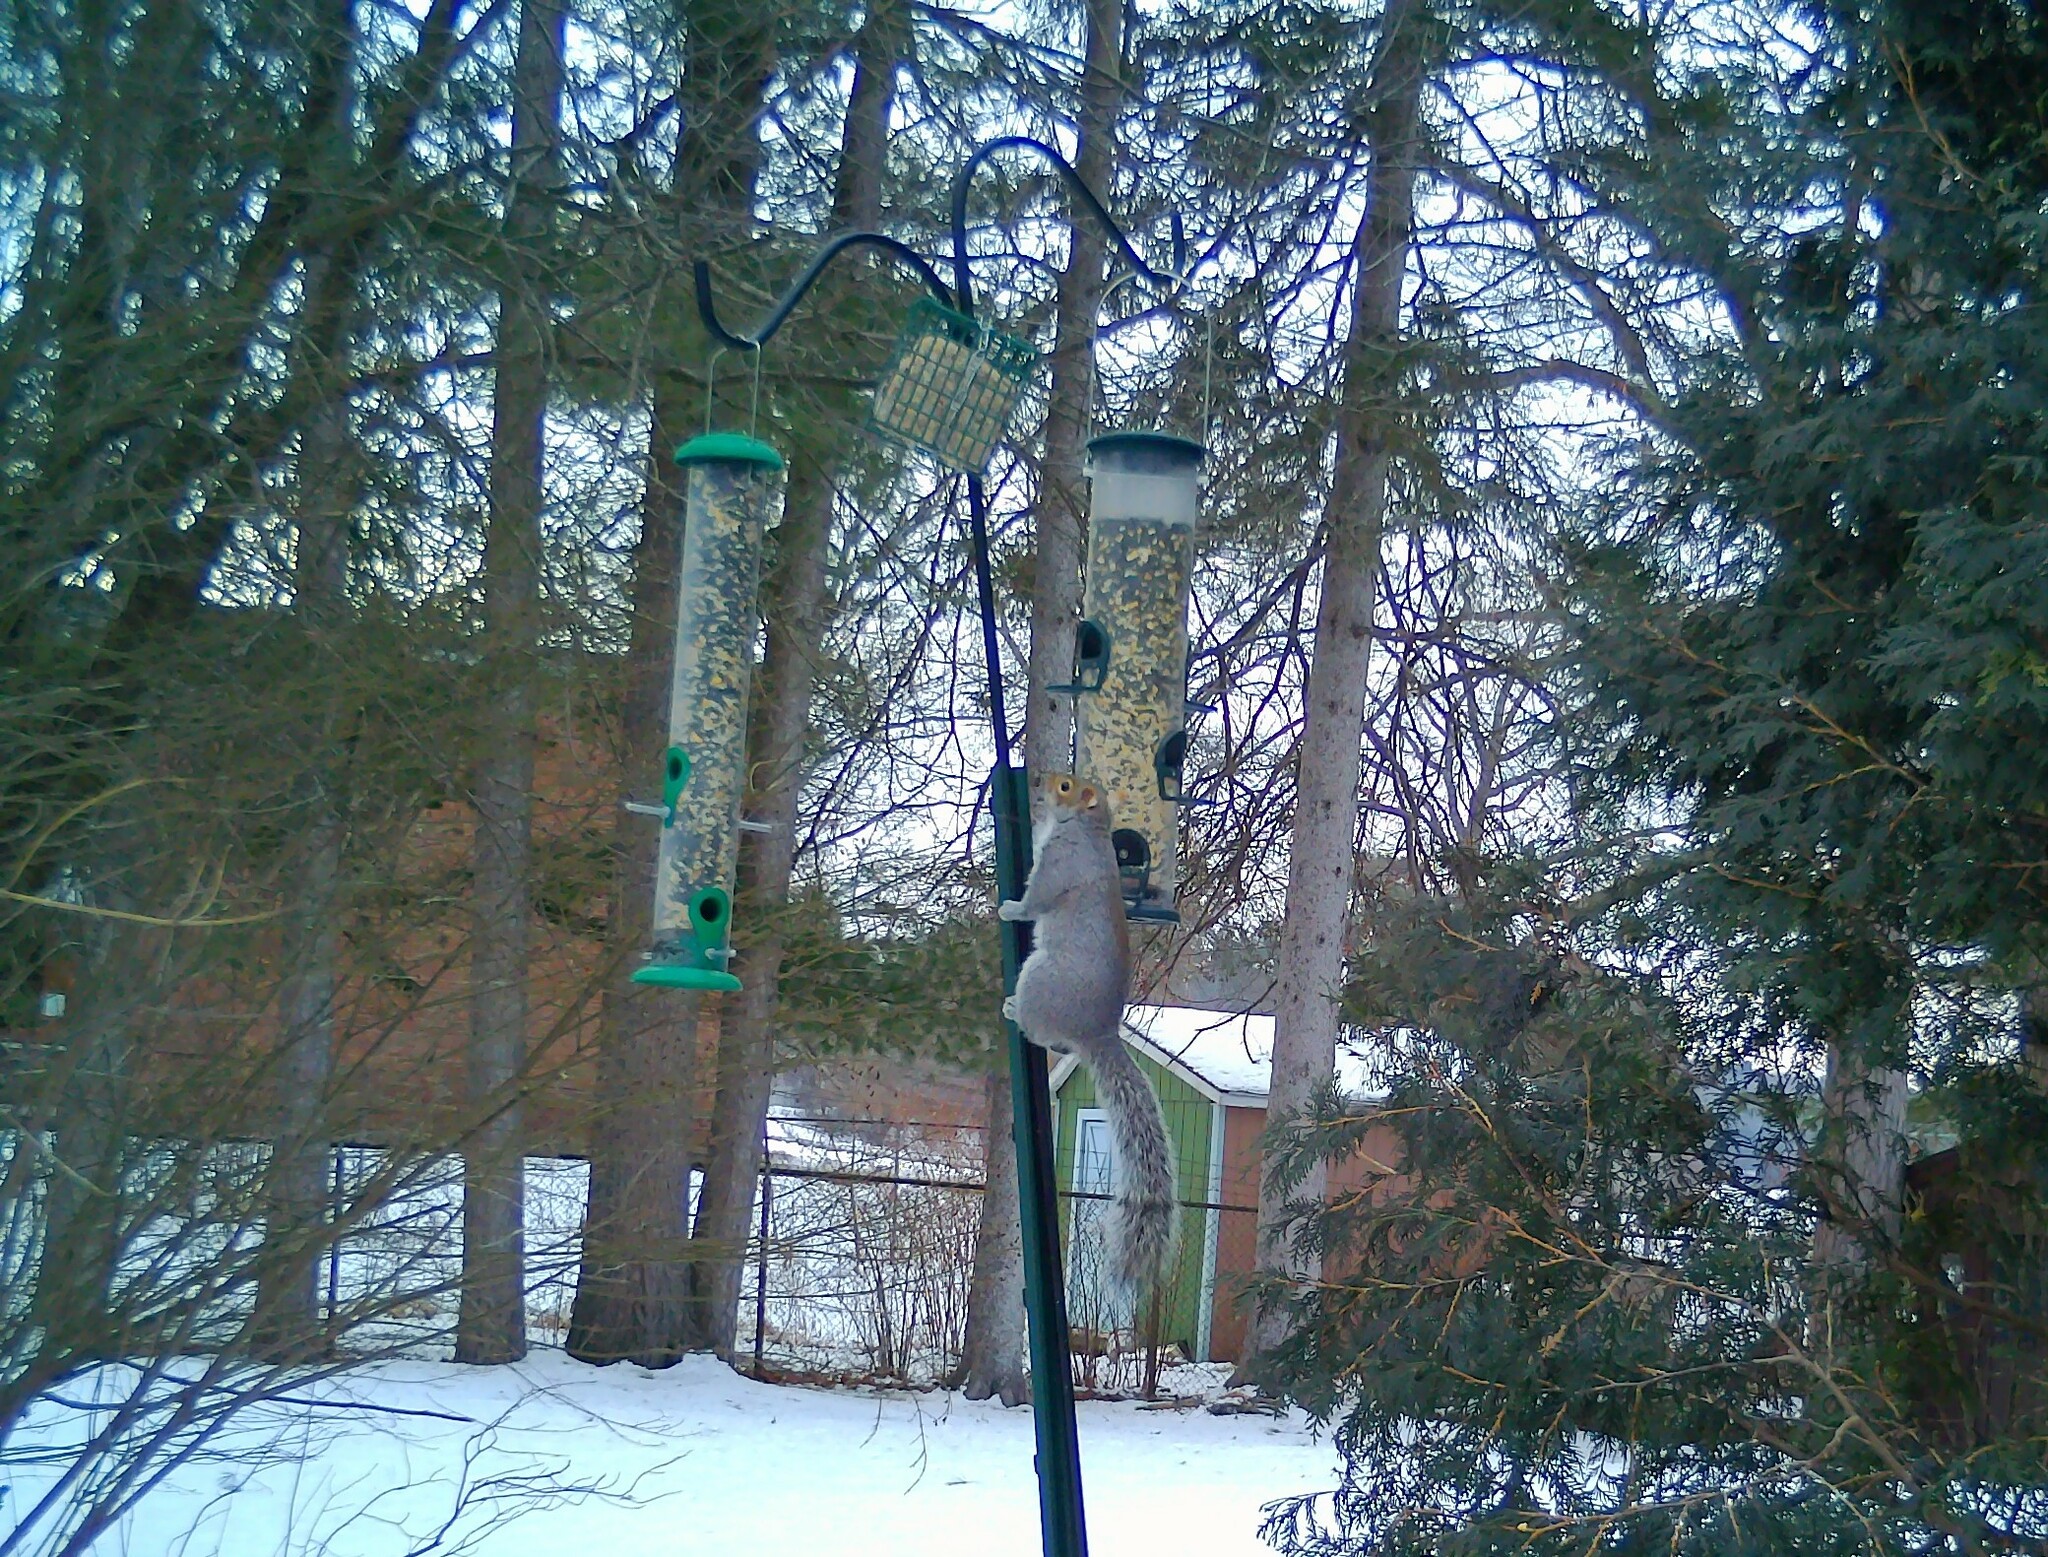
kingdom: Animalia
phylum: Chordata
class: Mammalia
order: Rodentia
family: Sciuridae
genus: Sciurus
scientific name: Sciurus carolinensis
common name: Eastern gray squirrel
